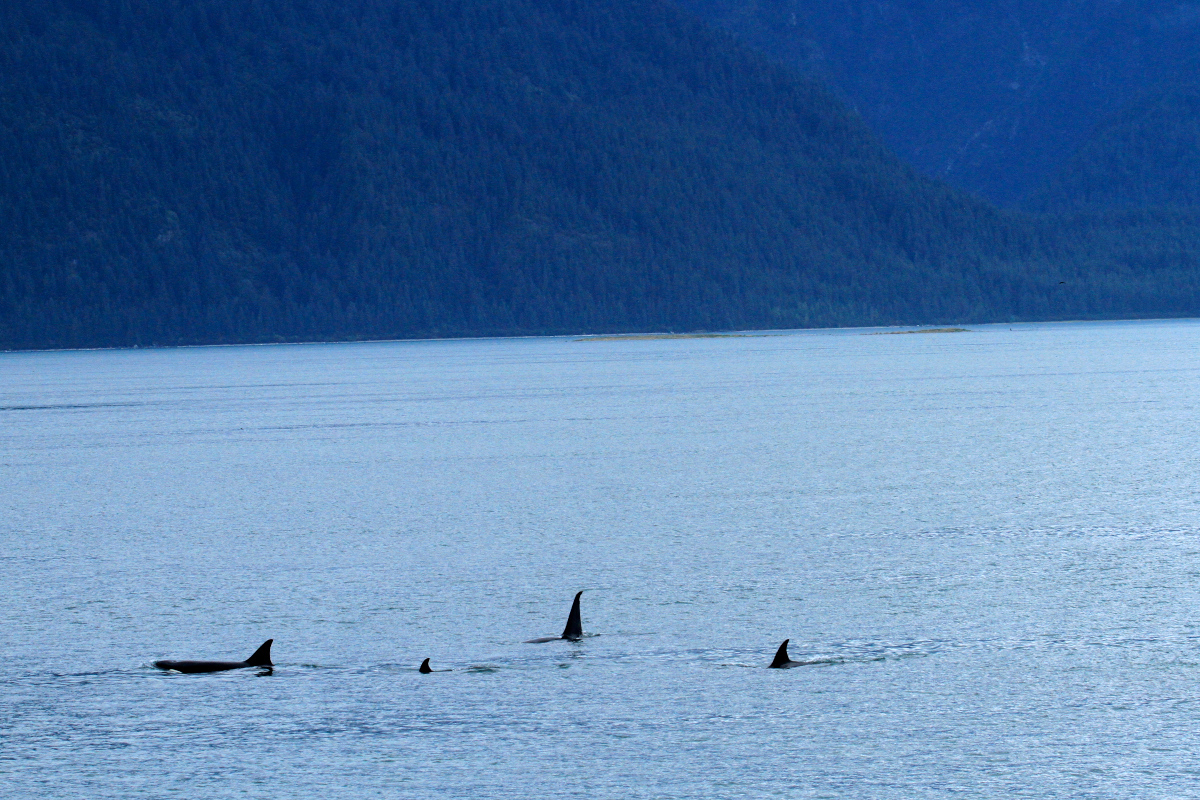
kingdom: Animalia
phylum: Chordata
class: Mammalia
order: Cetacea
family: Delphinidae
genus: Orcinus
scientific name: Orcinus orca
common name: Killer whale
